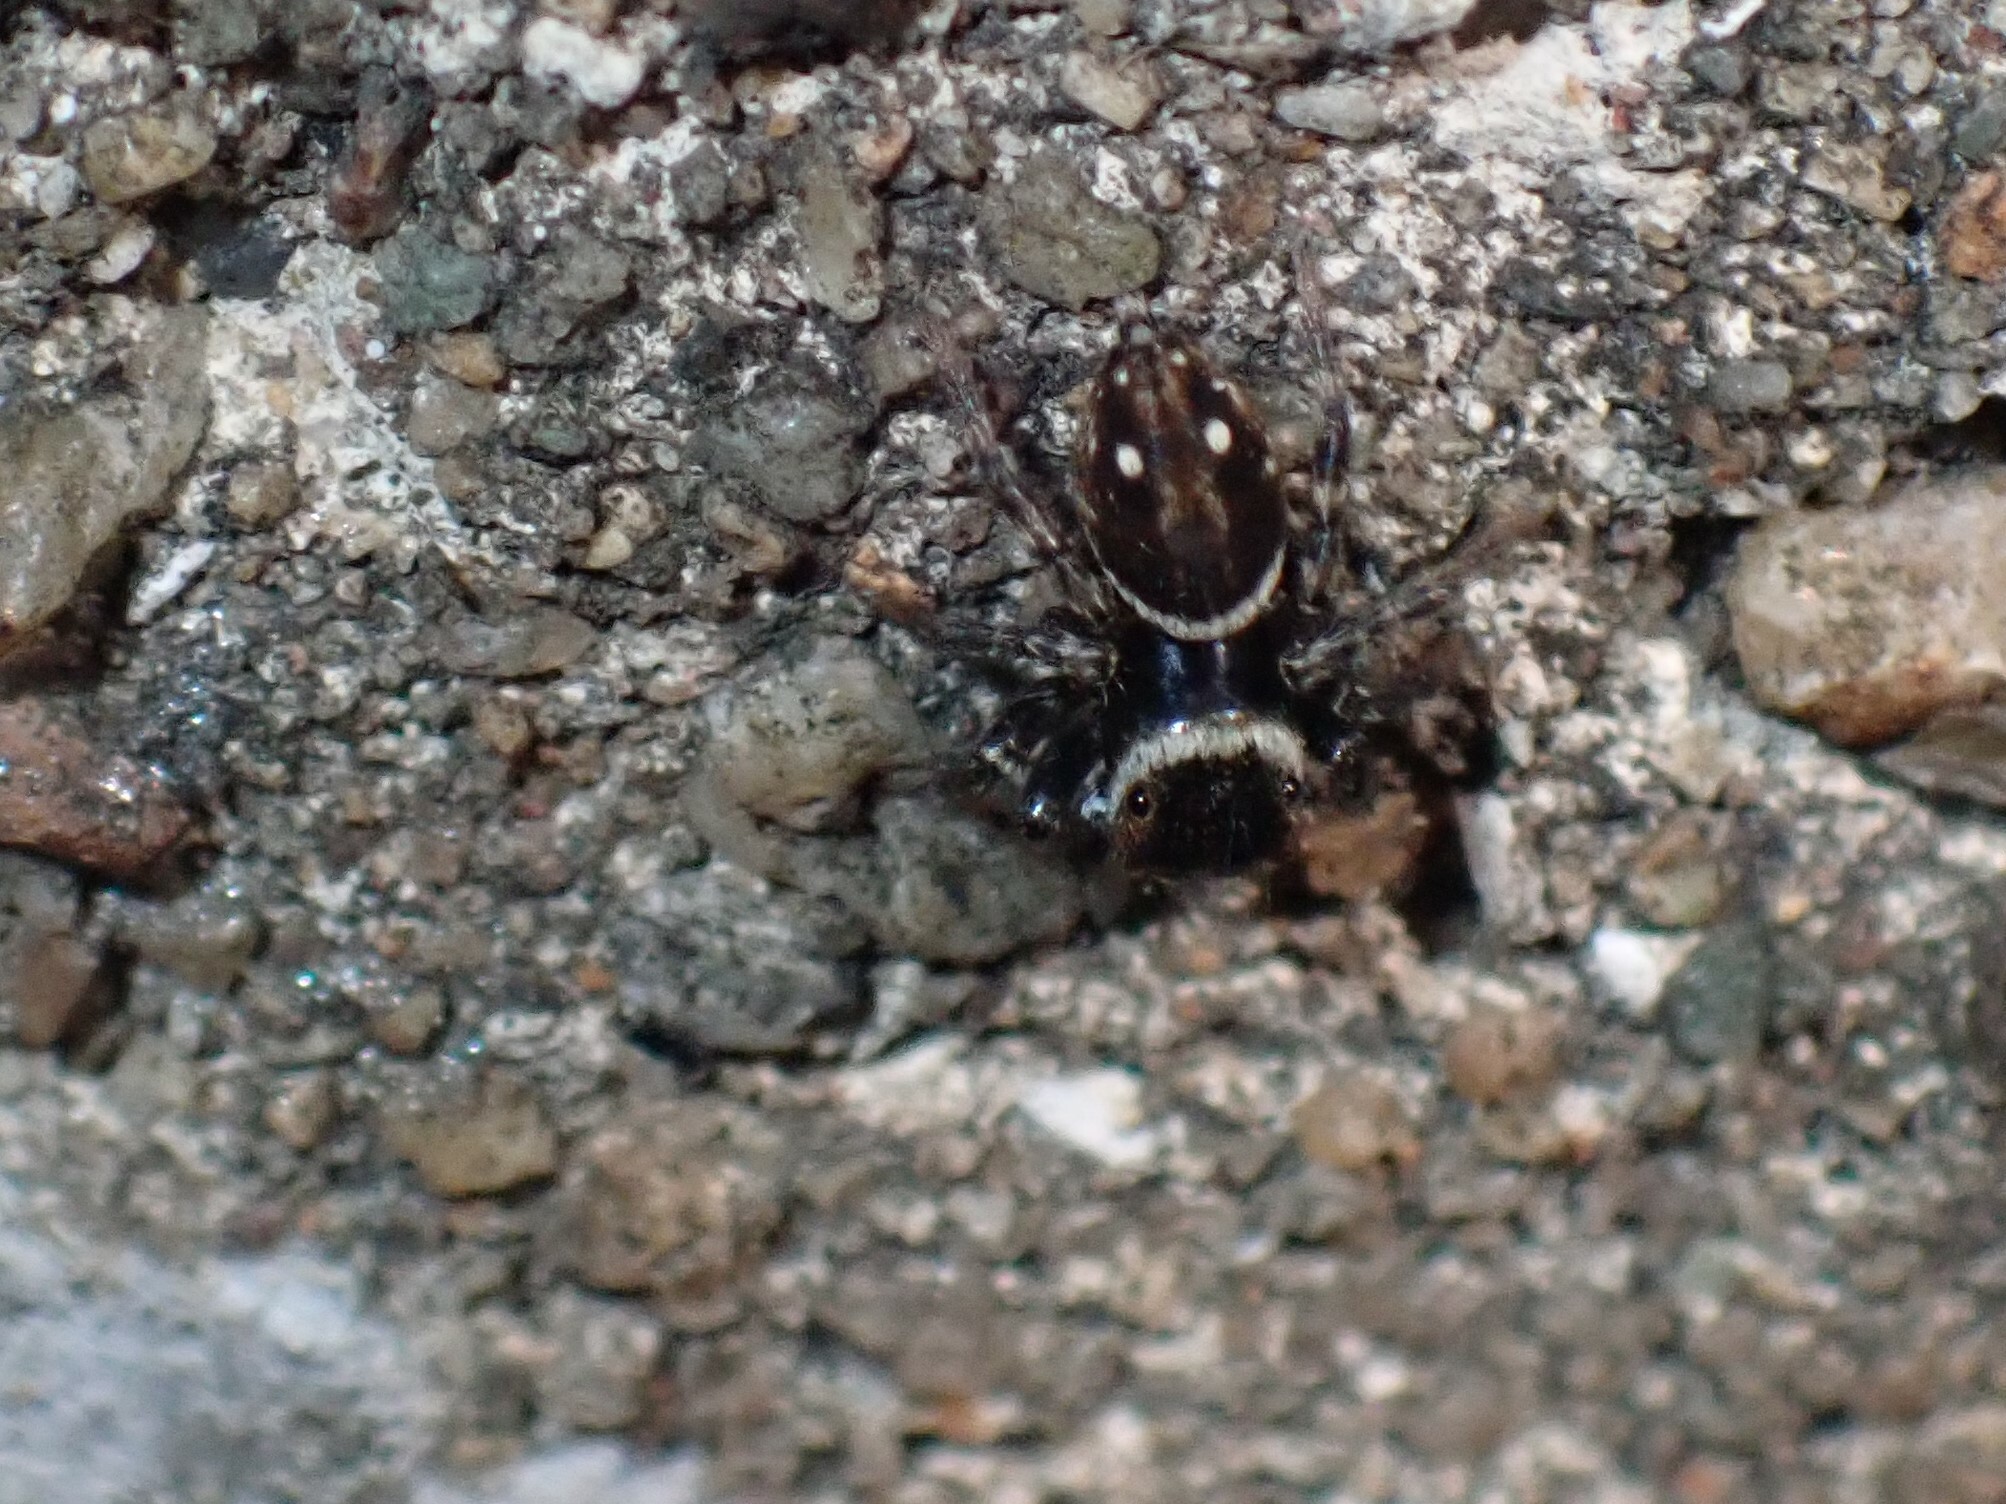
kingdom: Animalia
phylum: Arthropoda
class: Arachnida
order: Araneae
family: Salticidae
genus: Hasarius
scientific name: Hasarius adansoni
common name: Jumping spider
